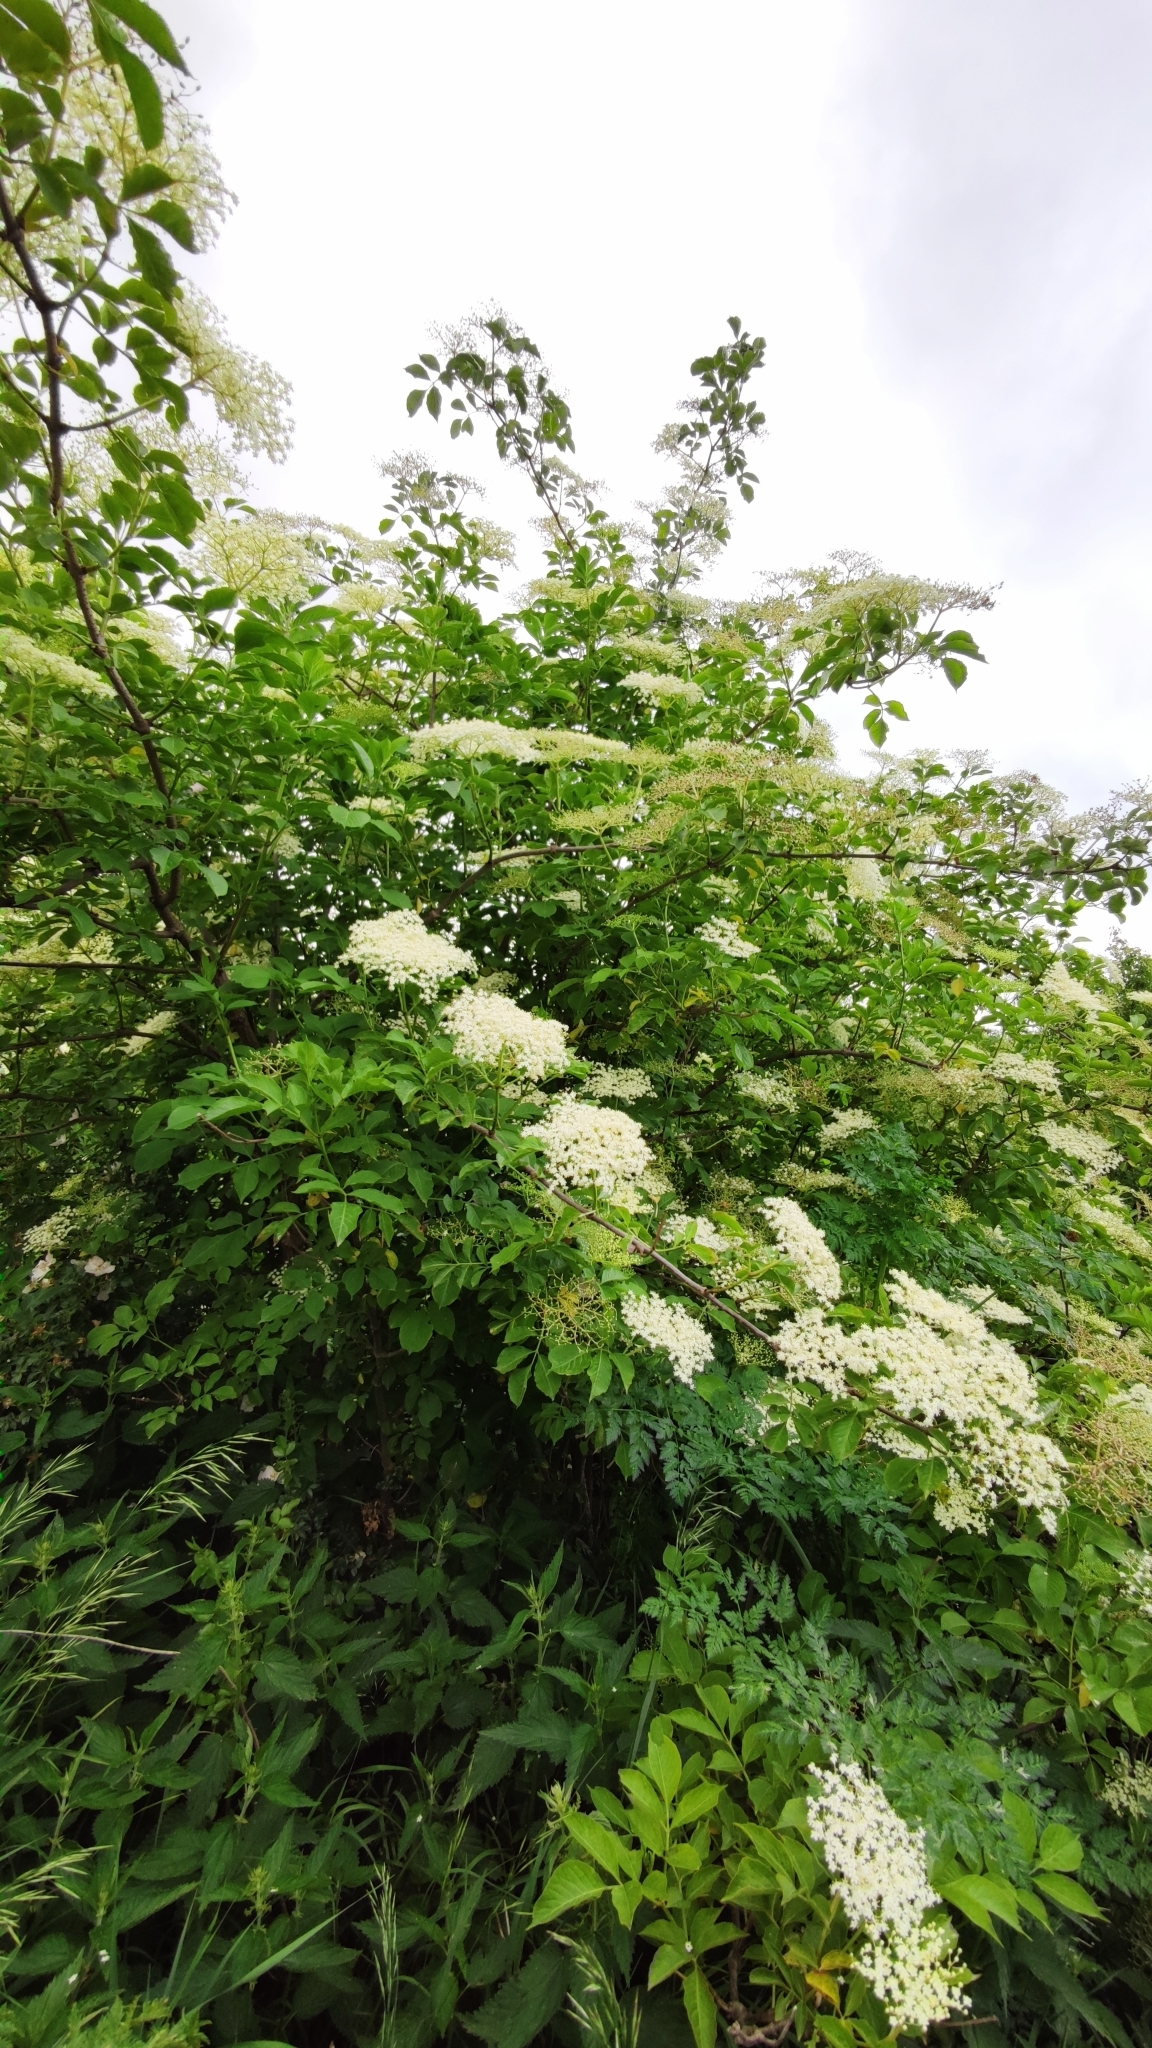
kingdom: Plantae
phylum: Tracheophyta
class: Magnoliopsida
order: Dipsacales
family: Viburnaceae
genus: Sambucus
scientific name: Sambucus nigra
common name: Elder
